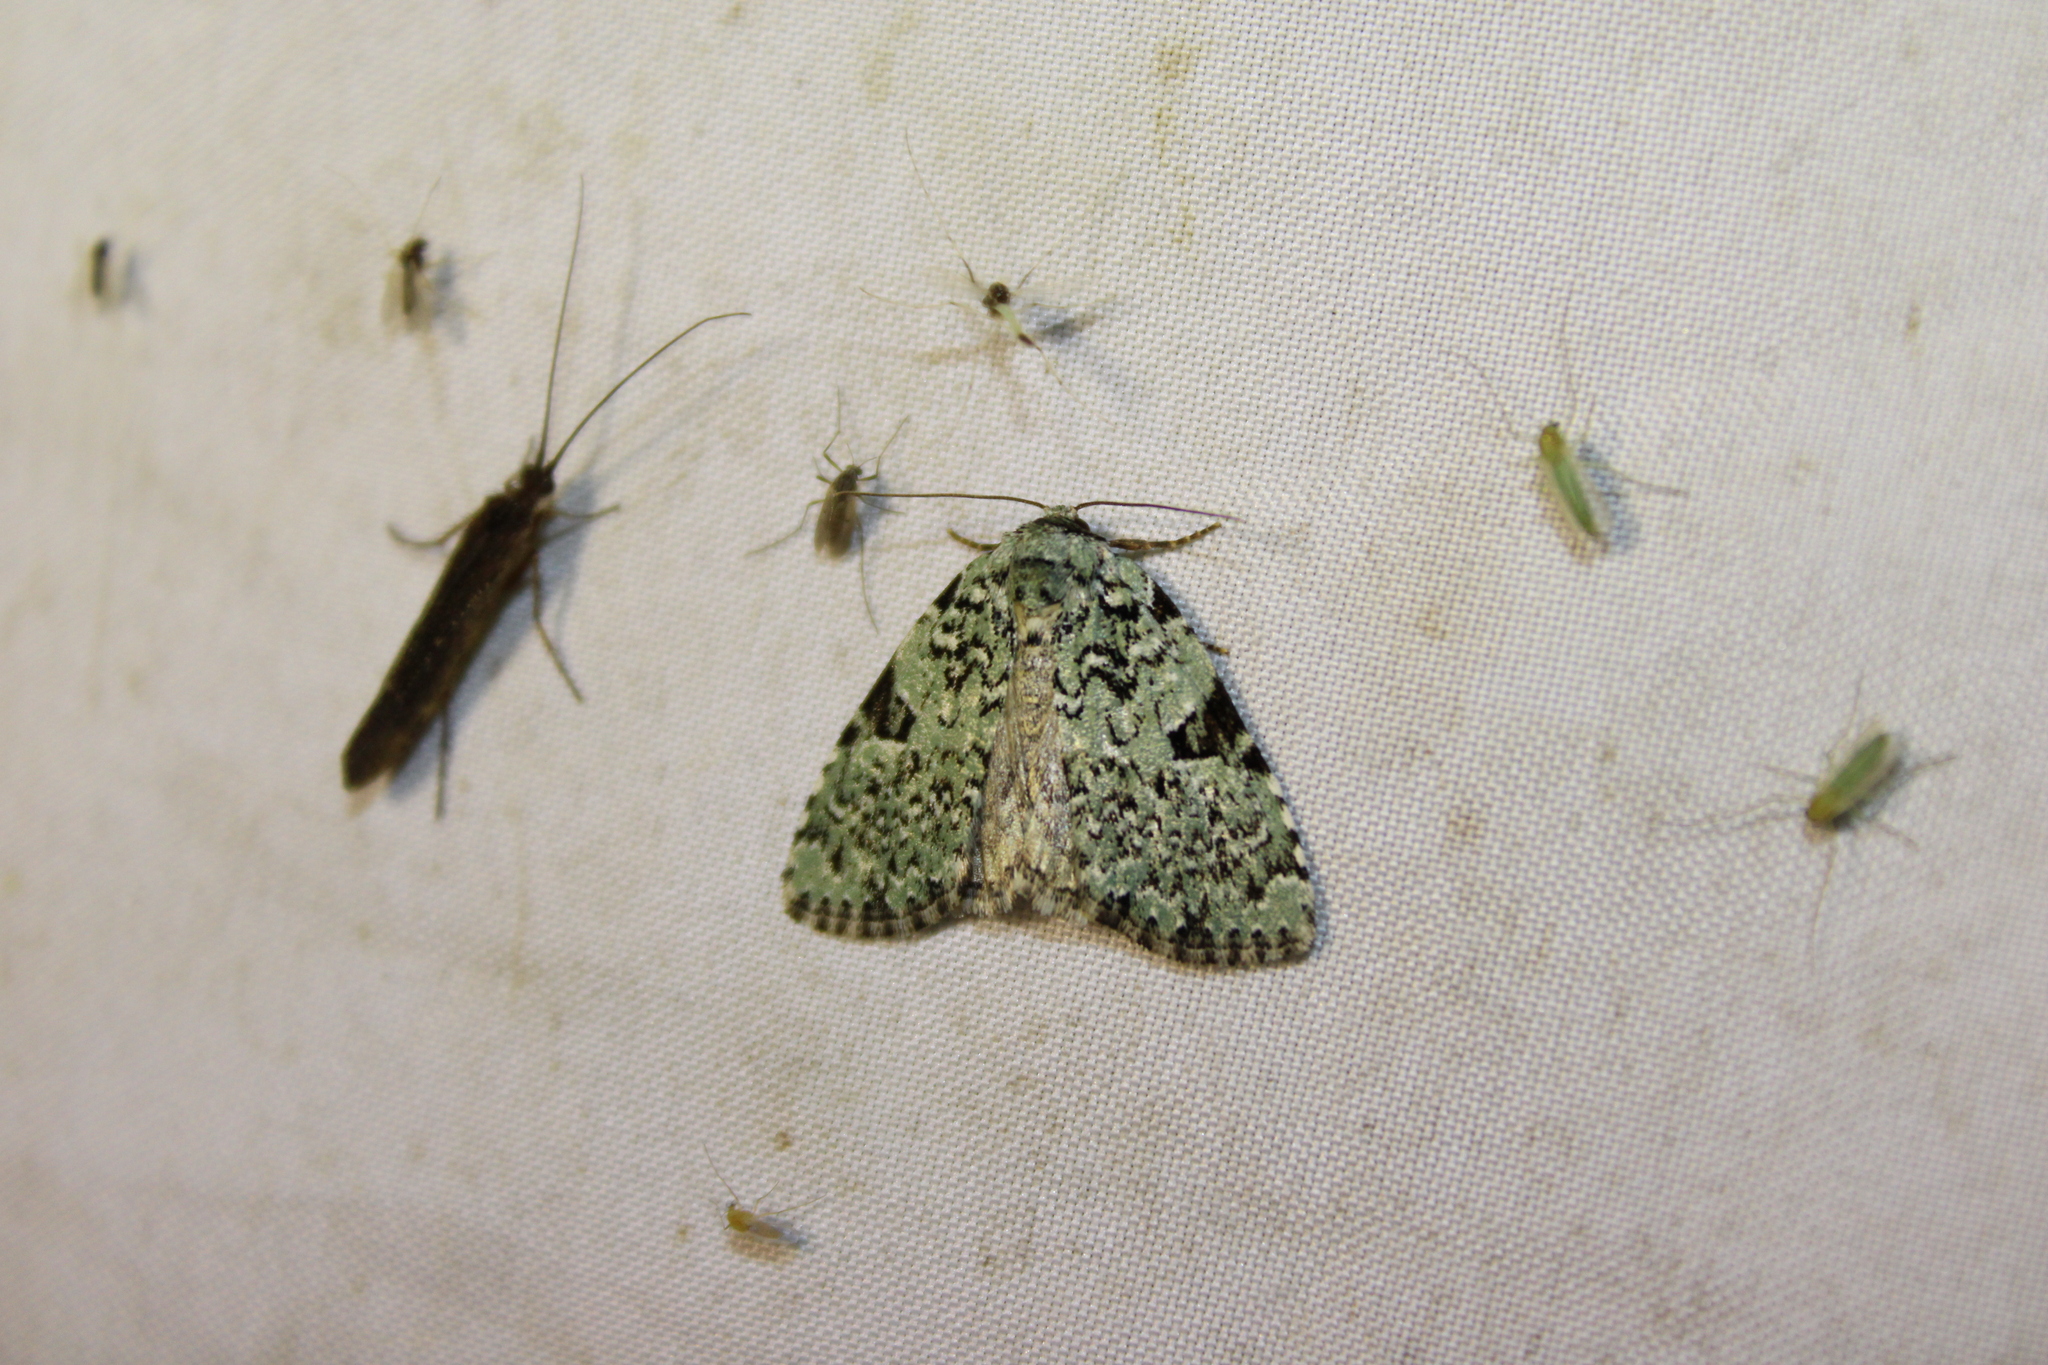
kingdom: Animalia
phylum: Arthropoda
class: Insecta
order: Lepidoptera
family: Noctuidae
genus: Leuconycta
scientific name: Leuconycta diphteroides
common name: Green leuconycta moth
